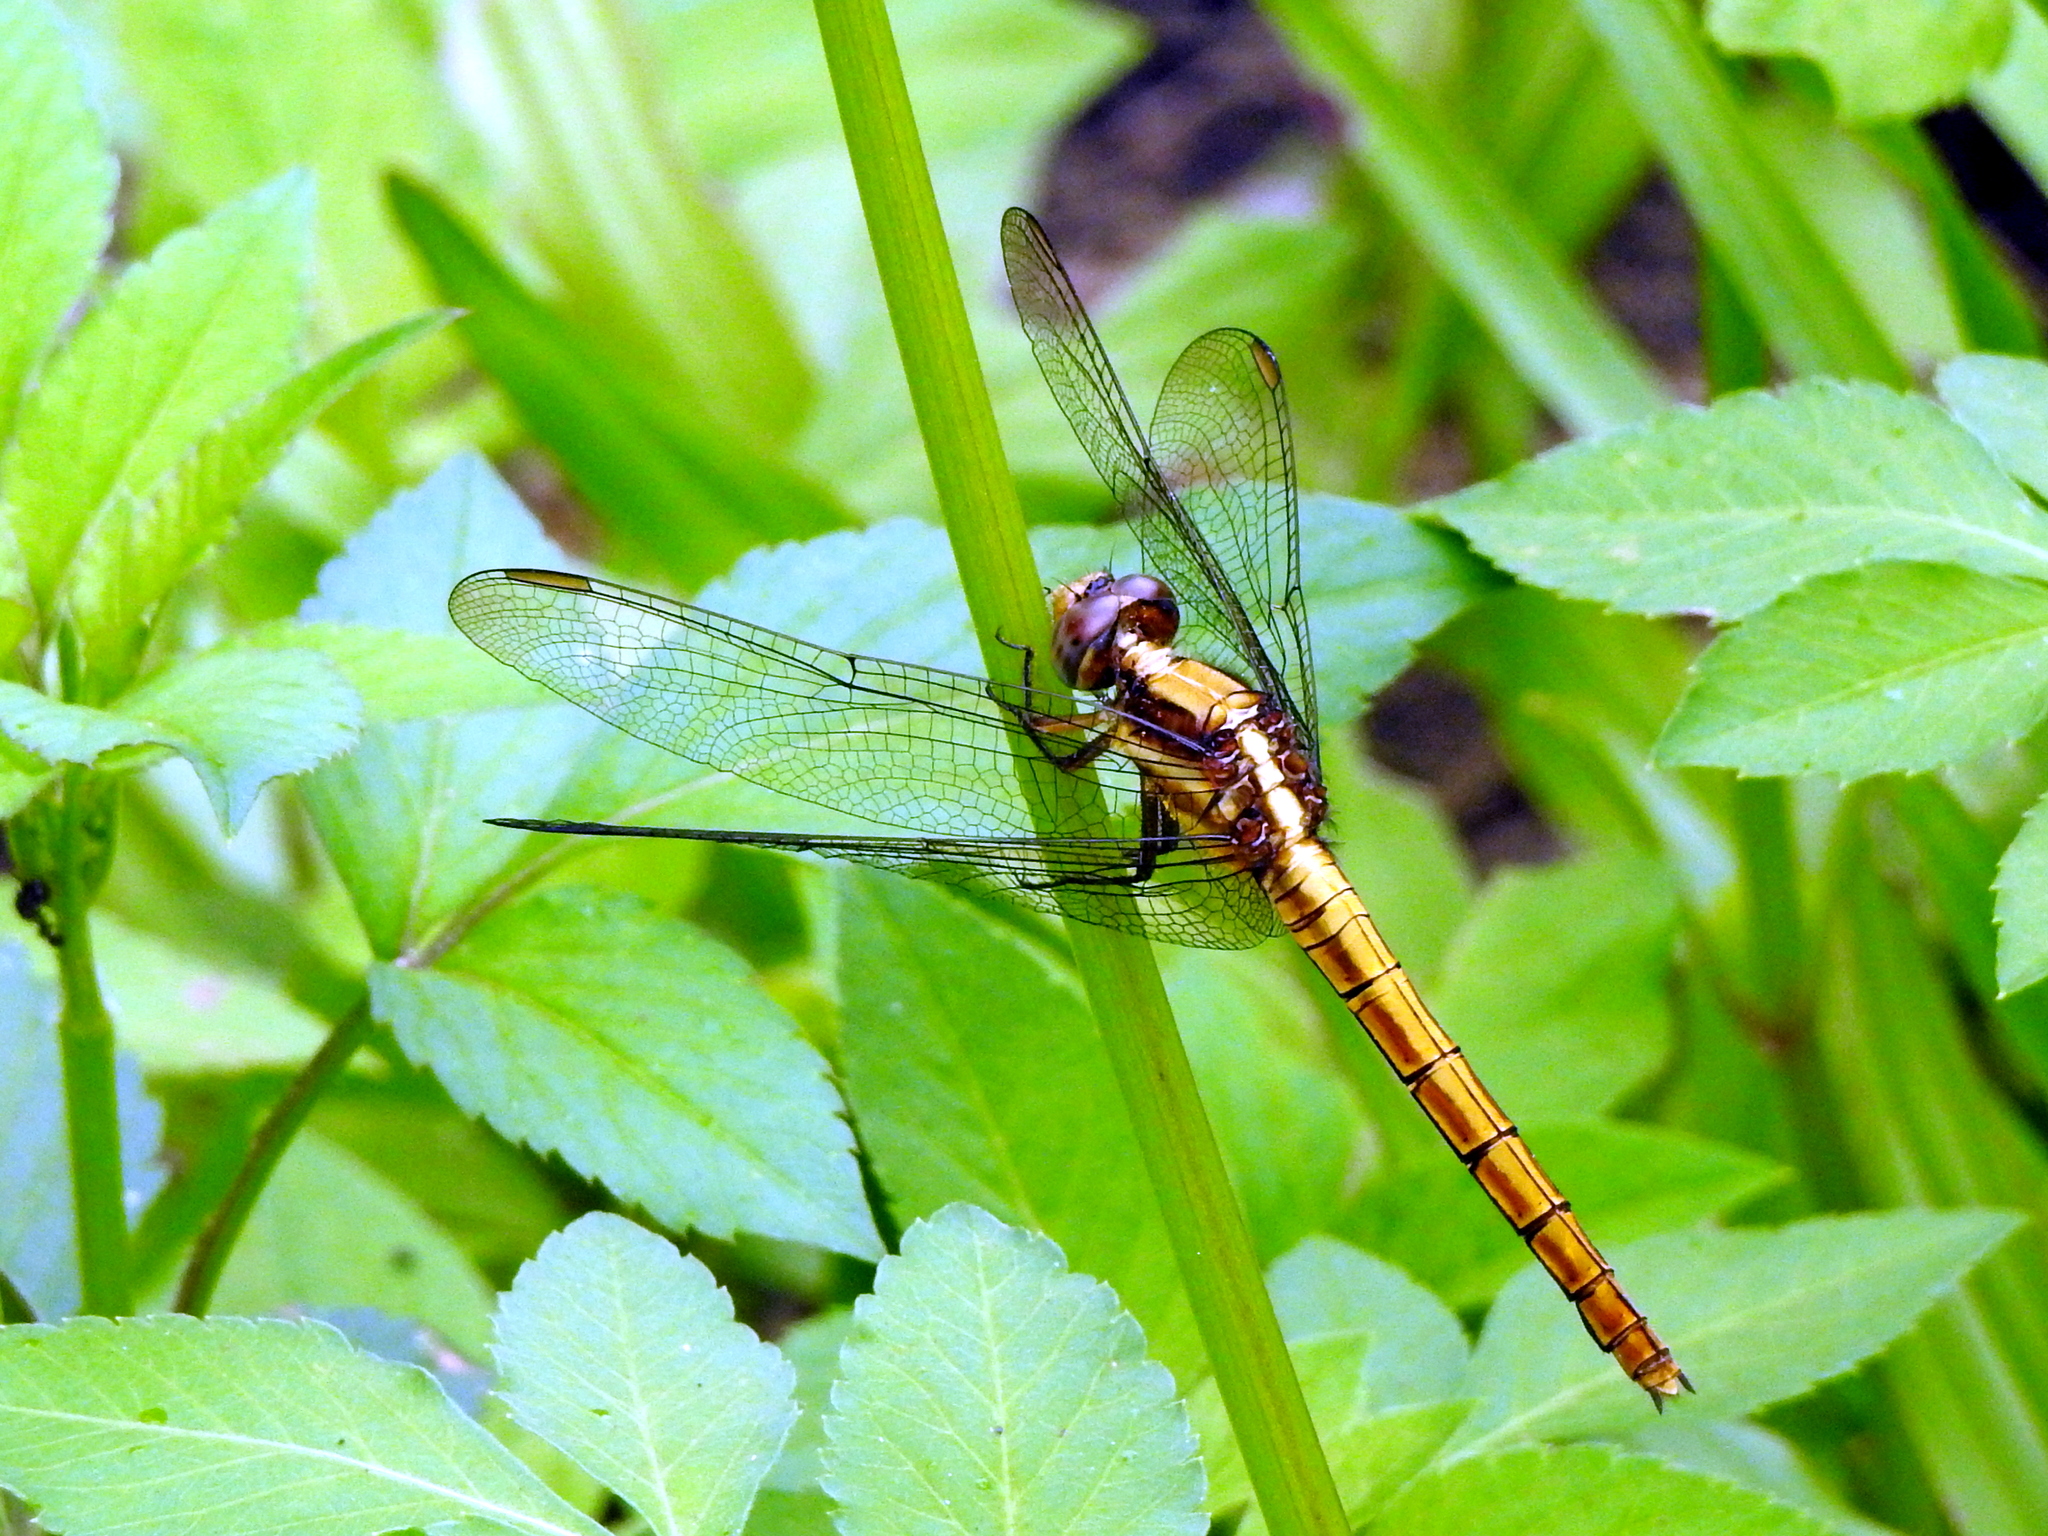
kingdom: Animalia
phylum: Arthropoda
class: Insecta
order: Odonata
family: Libellulidae
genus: Orthetrum
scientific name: Orthetrum glaucum
